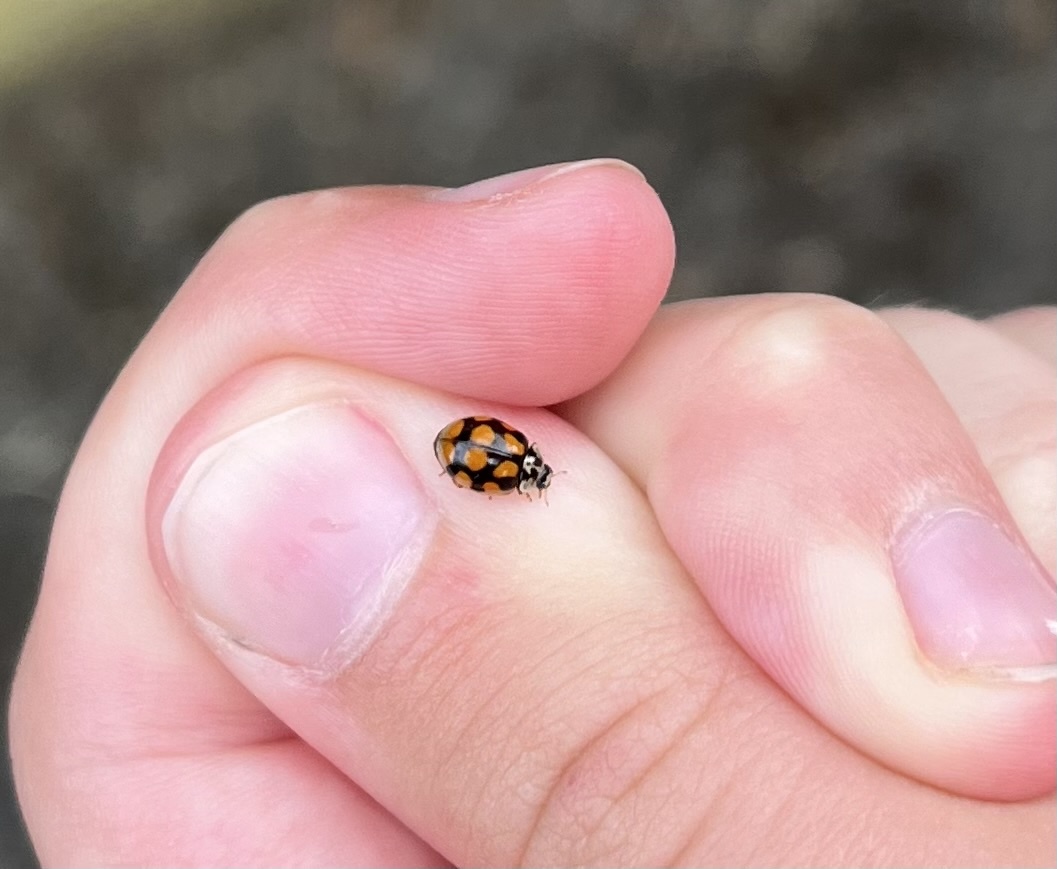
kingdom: Animalia
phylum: Arthropoda
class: Insecta
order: Coleoptera
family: Coccinellidae
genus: Harmonia
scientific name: Harmonia axyridis
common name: Harlequin ladybird
